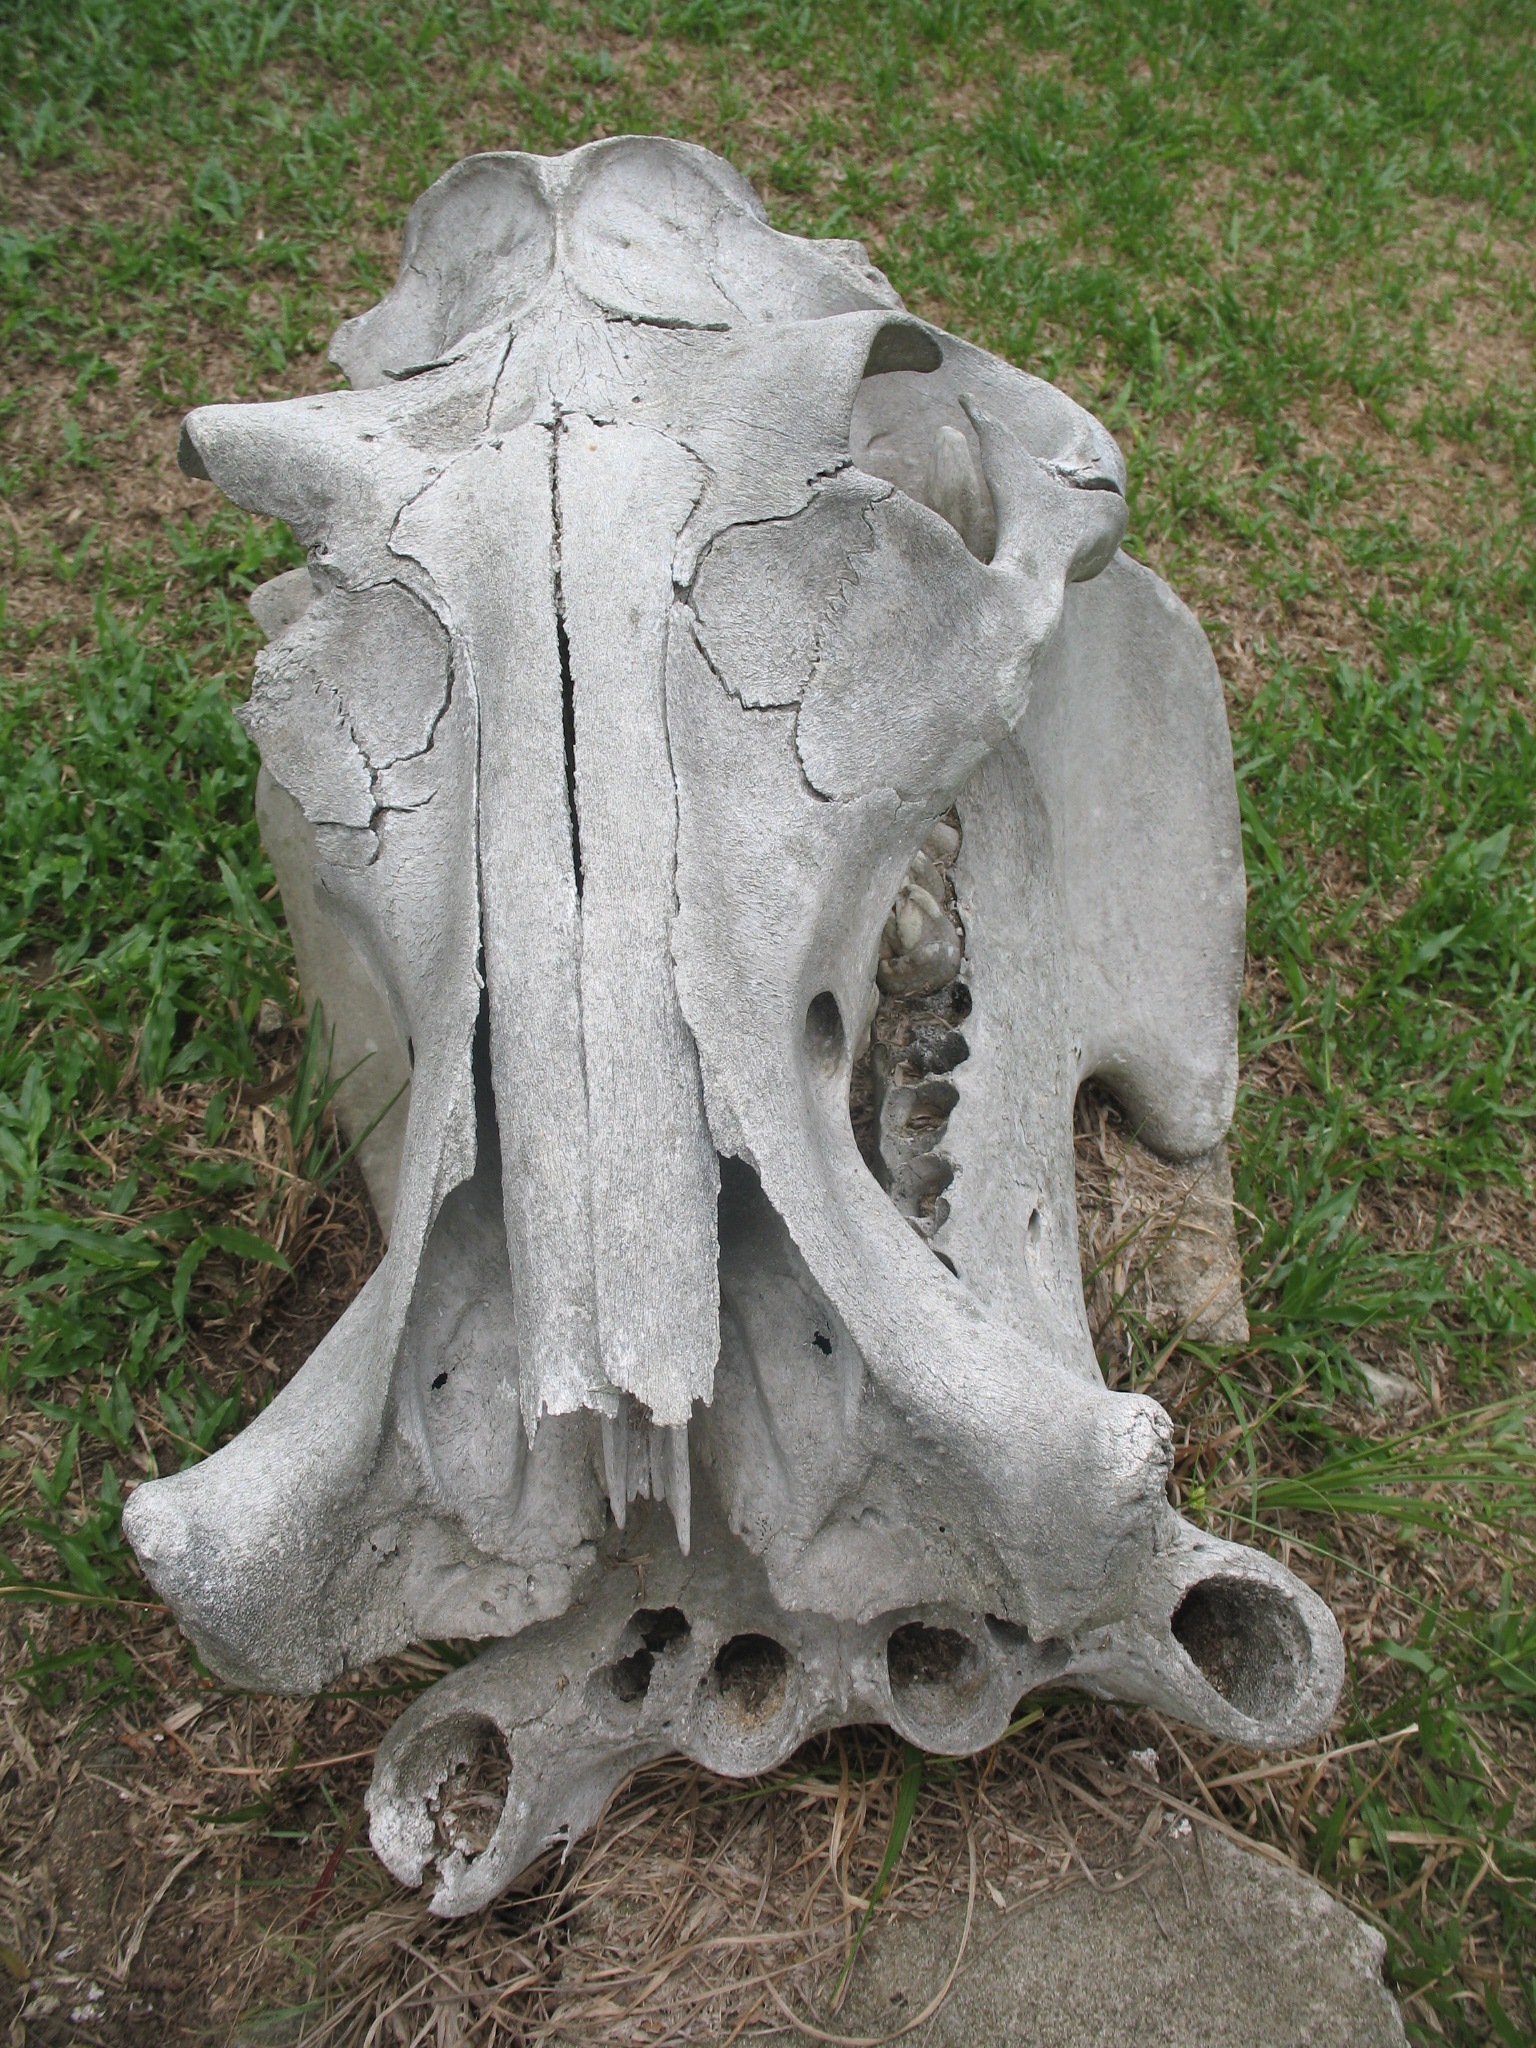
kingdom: Animalia
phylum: Chordata
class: Mammalia
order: Artiodactyla
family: Hippopotamidae
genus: Hippopotamus
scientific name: Hippopotamus amphibius
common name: Common hippopotamus
